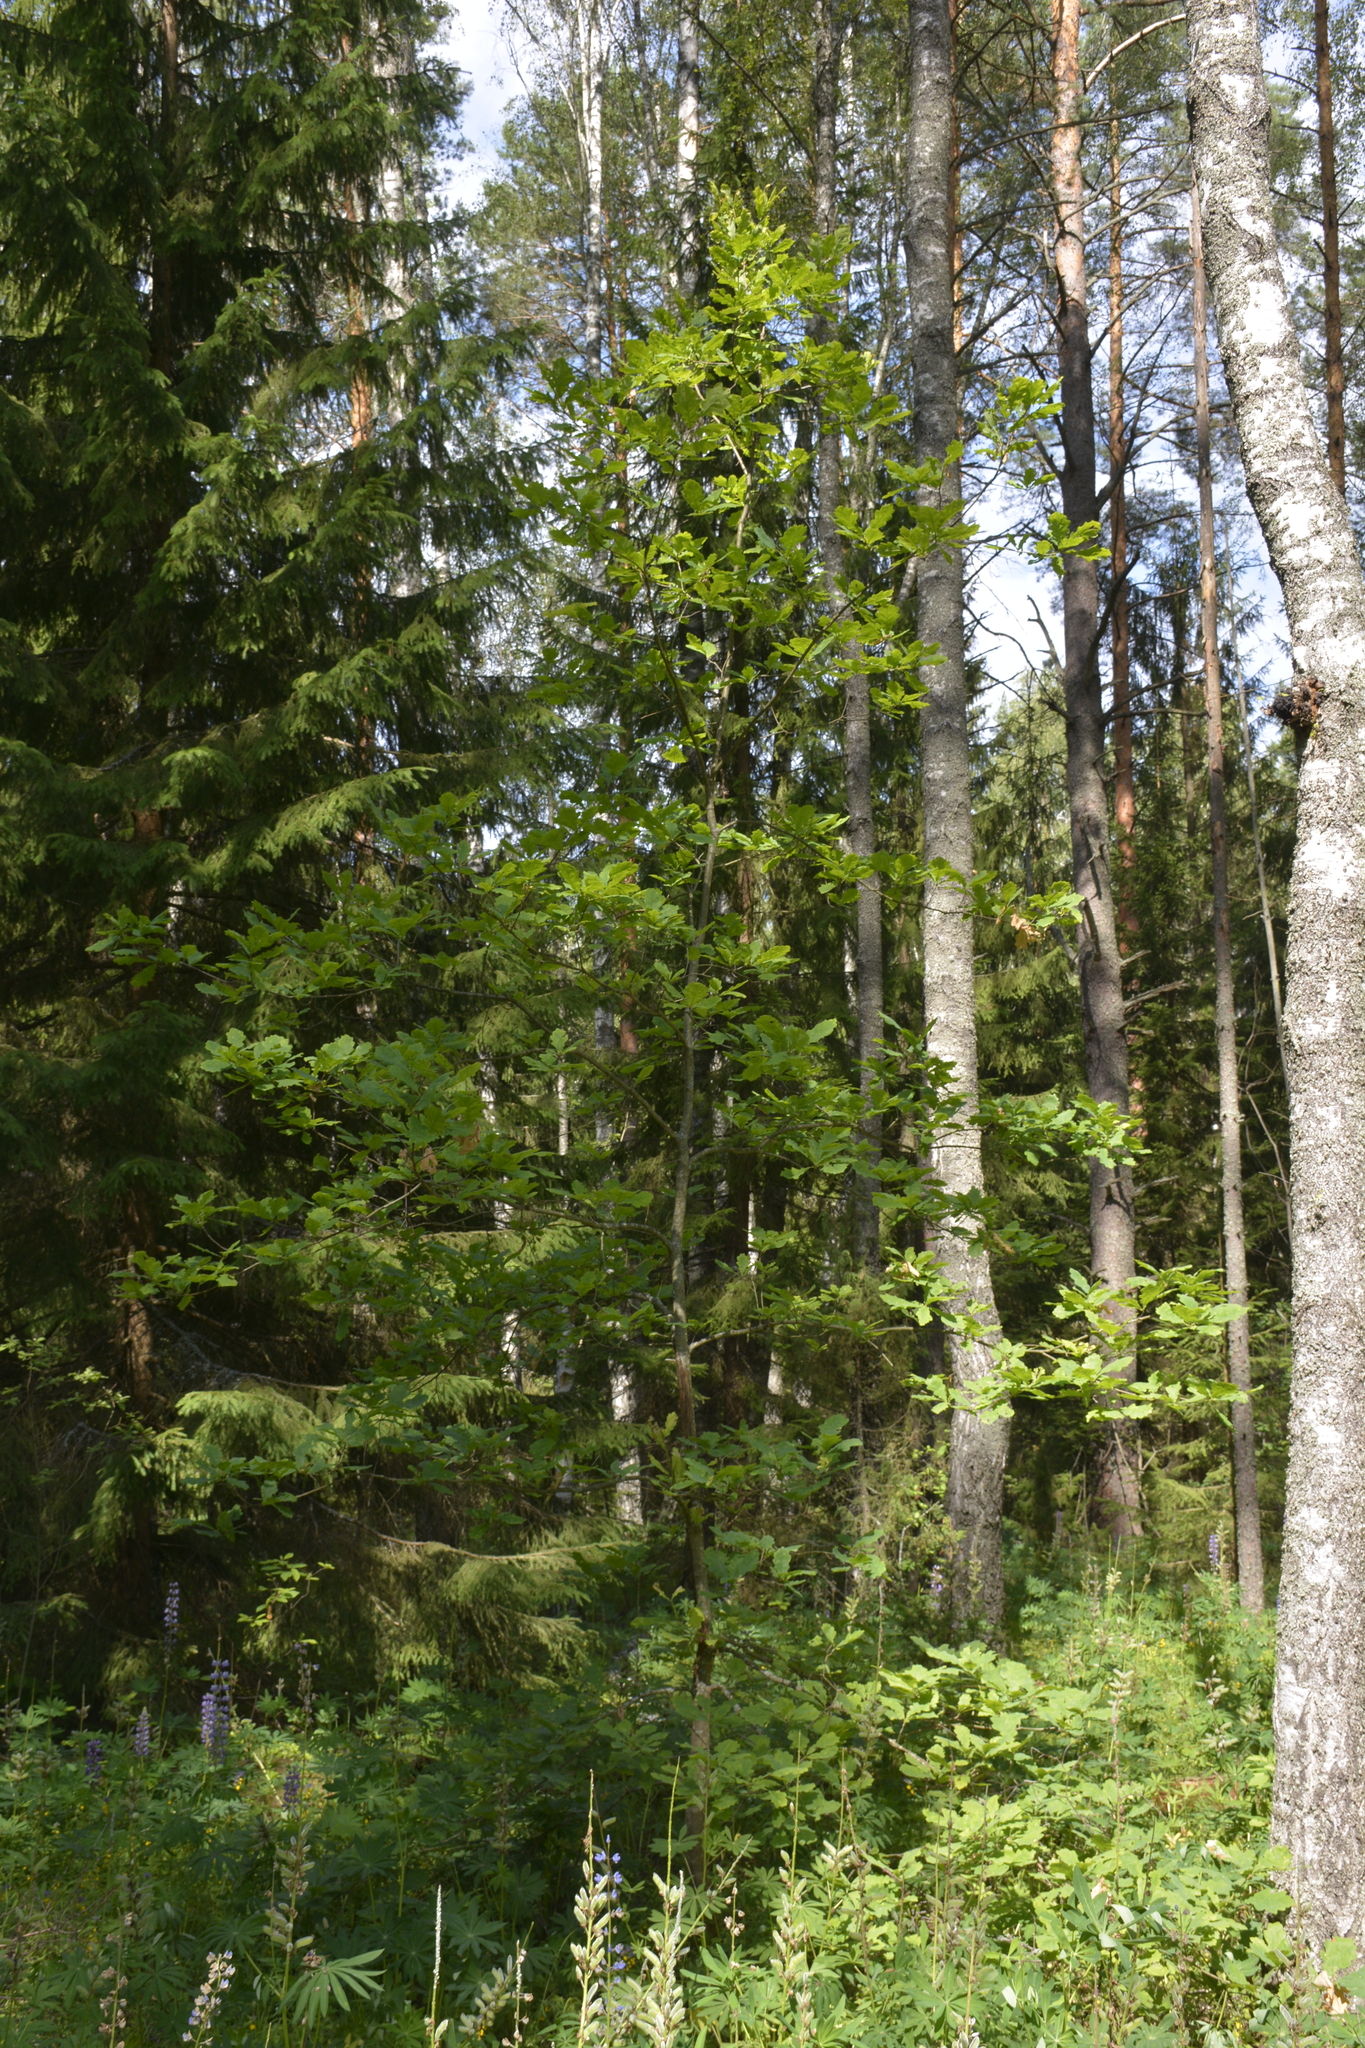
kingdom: Plantae
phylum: Tracheophyta
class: Magnoliopsida
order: Fagales
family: Fagaceae
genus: Quercus
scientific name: Quercus robur
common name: Pedunculate oak
